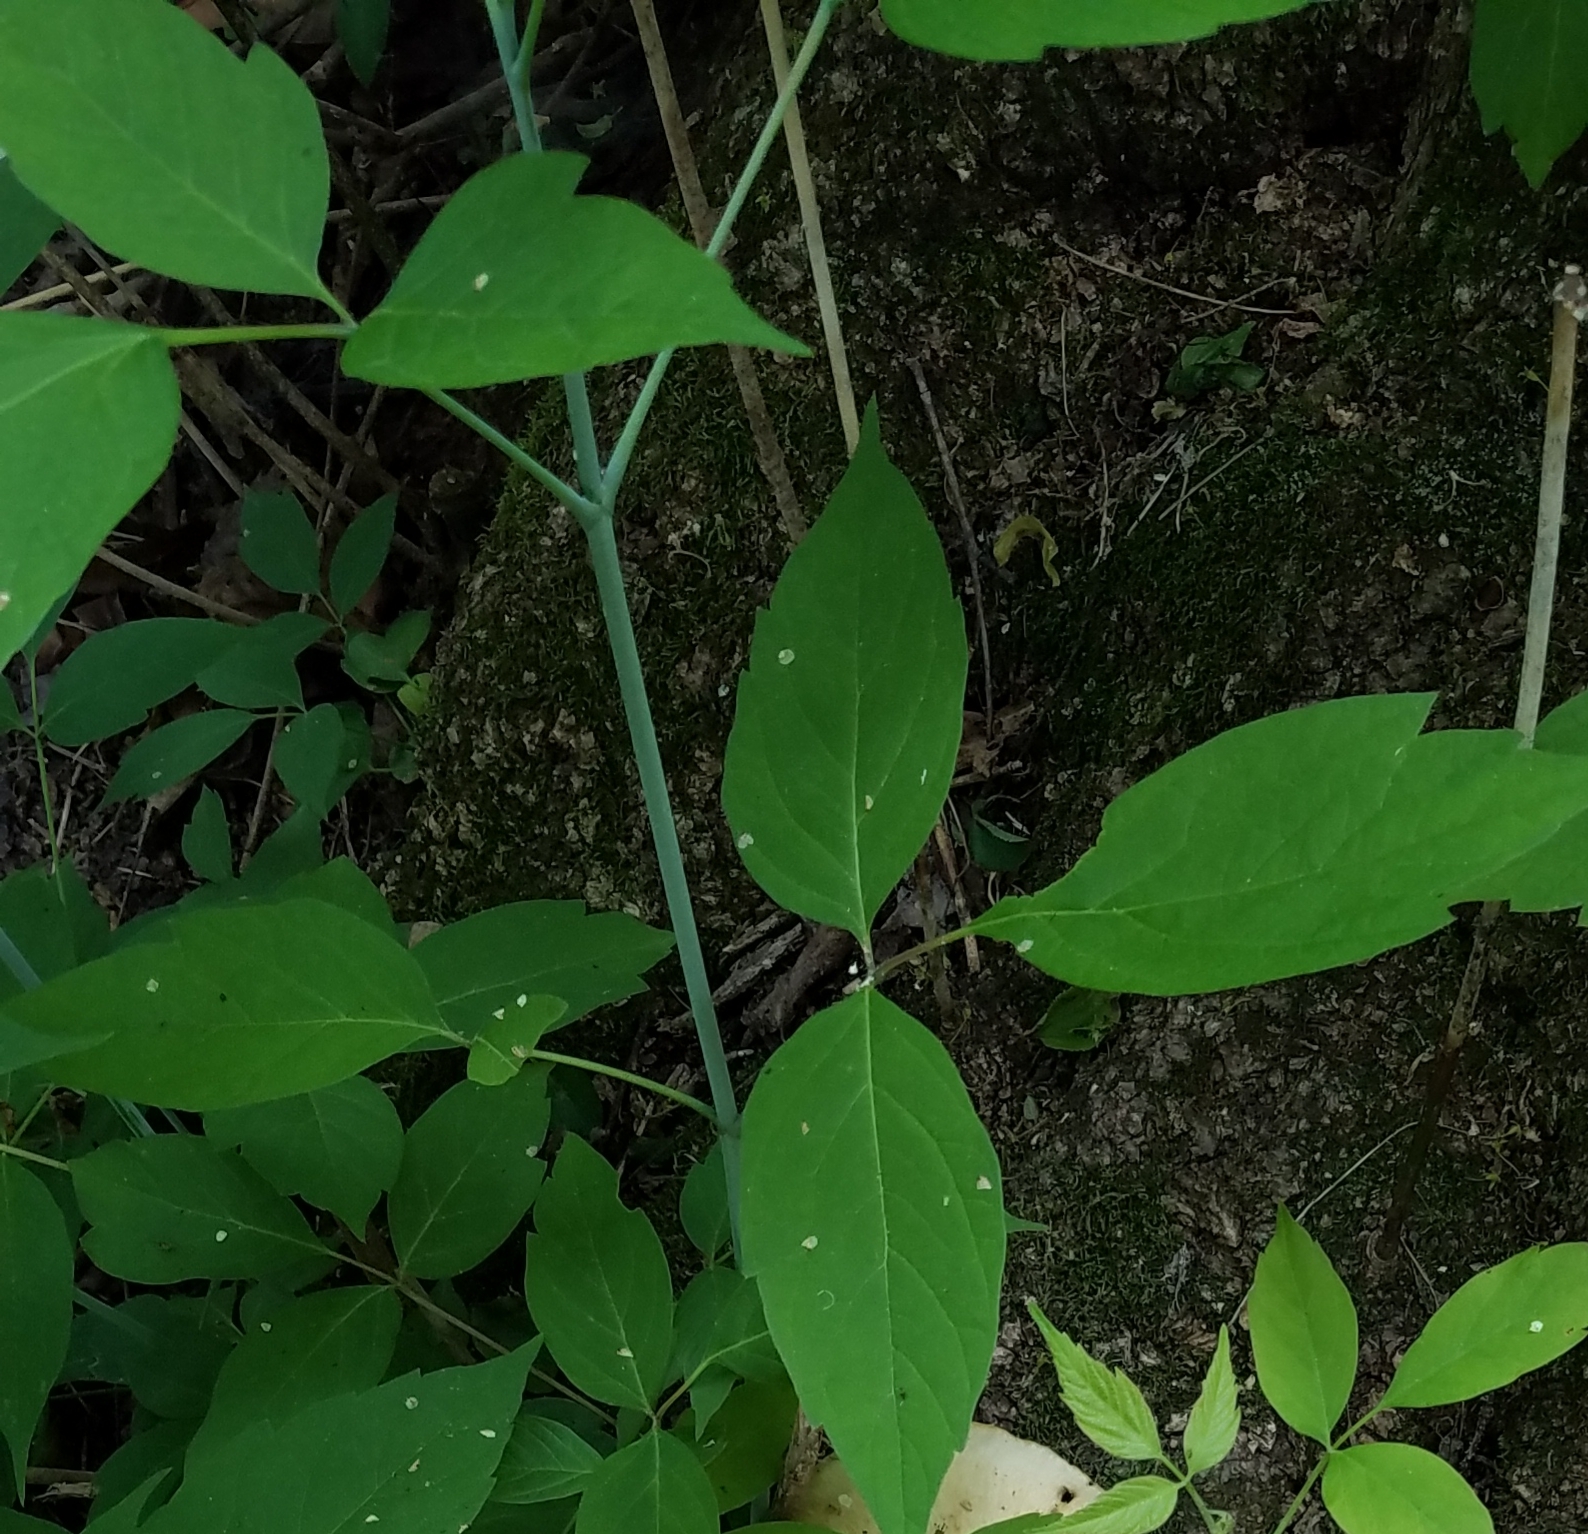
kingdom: Plantae
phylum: Tracheophyta
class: Magnoliopsida
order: Sapindales
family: Sapindaceae
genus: Acer
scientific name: Acer negundo
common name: Ashleaf maple
